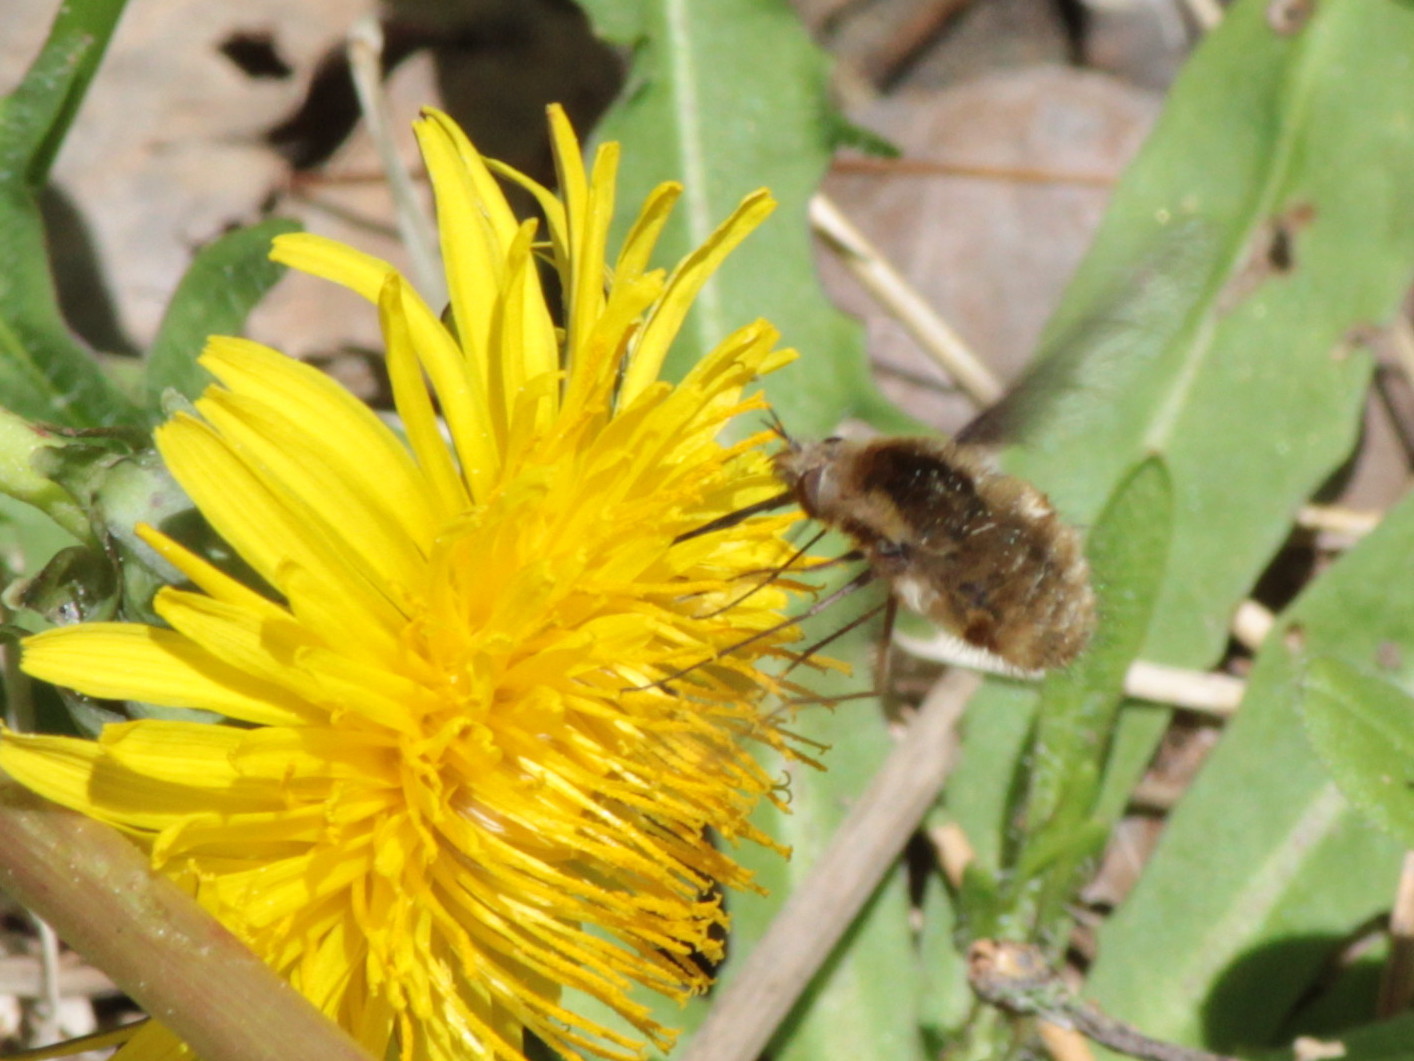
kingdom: Animalia
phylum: Arthropoda
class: Insecta
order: Diptera
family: Bombyliidae
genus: Bombylius
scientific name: Bombylius major
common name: Bee fly
